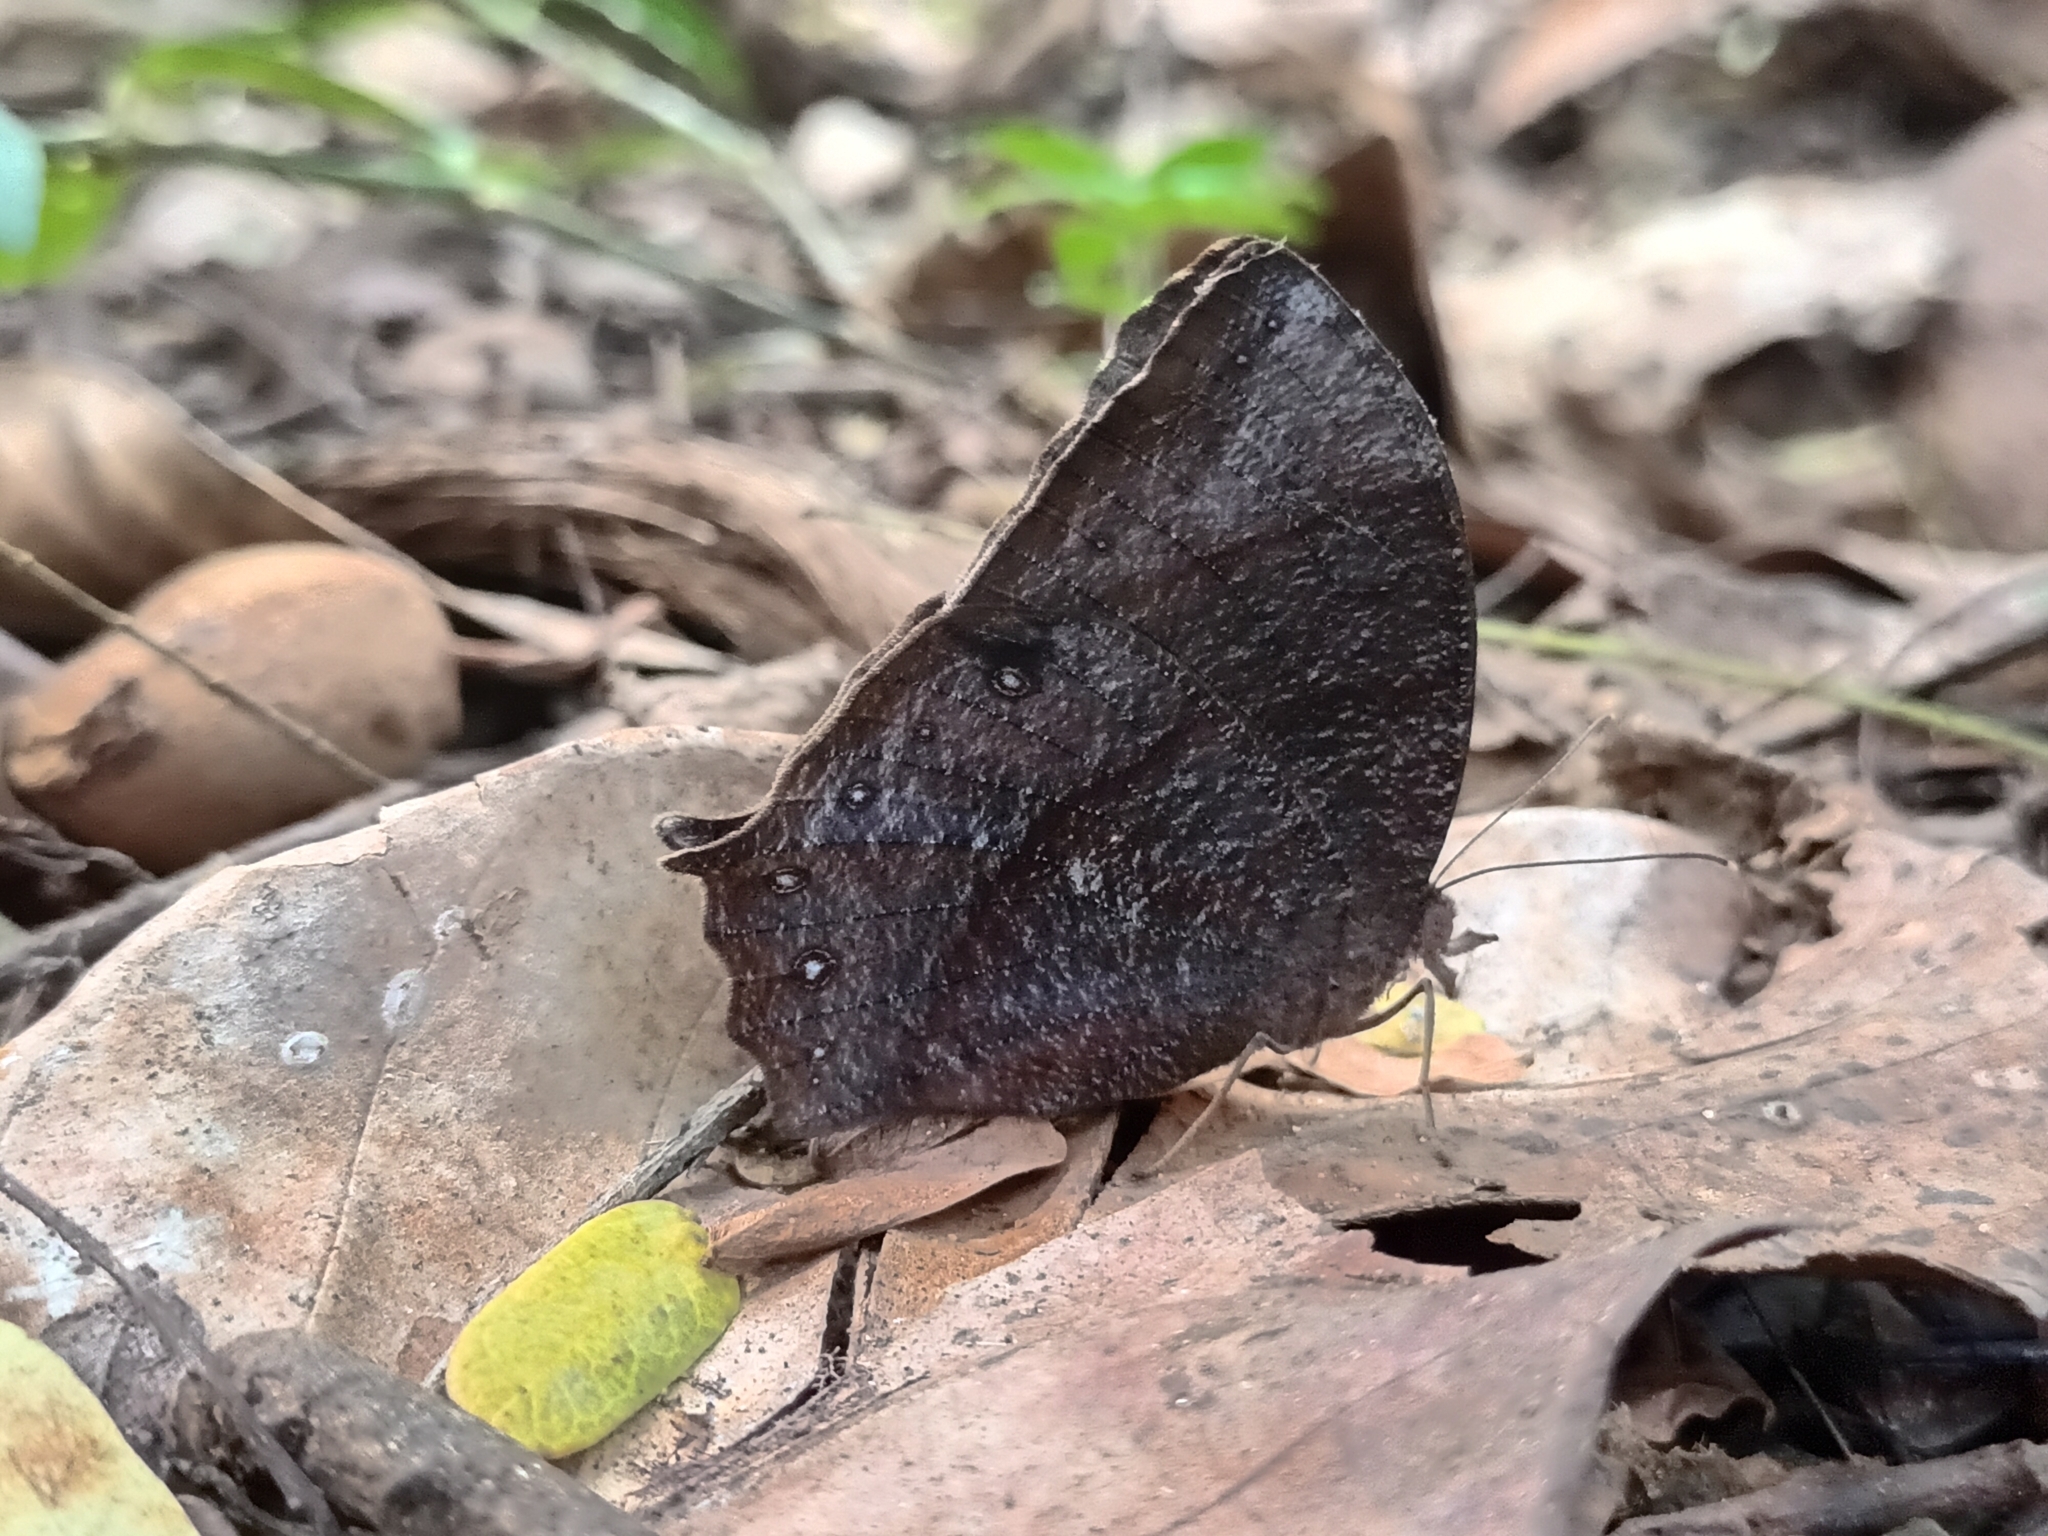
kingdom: Animalia
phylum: Arthropoda
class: Insecta
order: Lepidoptera
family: Nymphalidae
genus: Melanitis
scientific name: Melanitis phedima
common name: Dark evening brown
